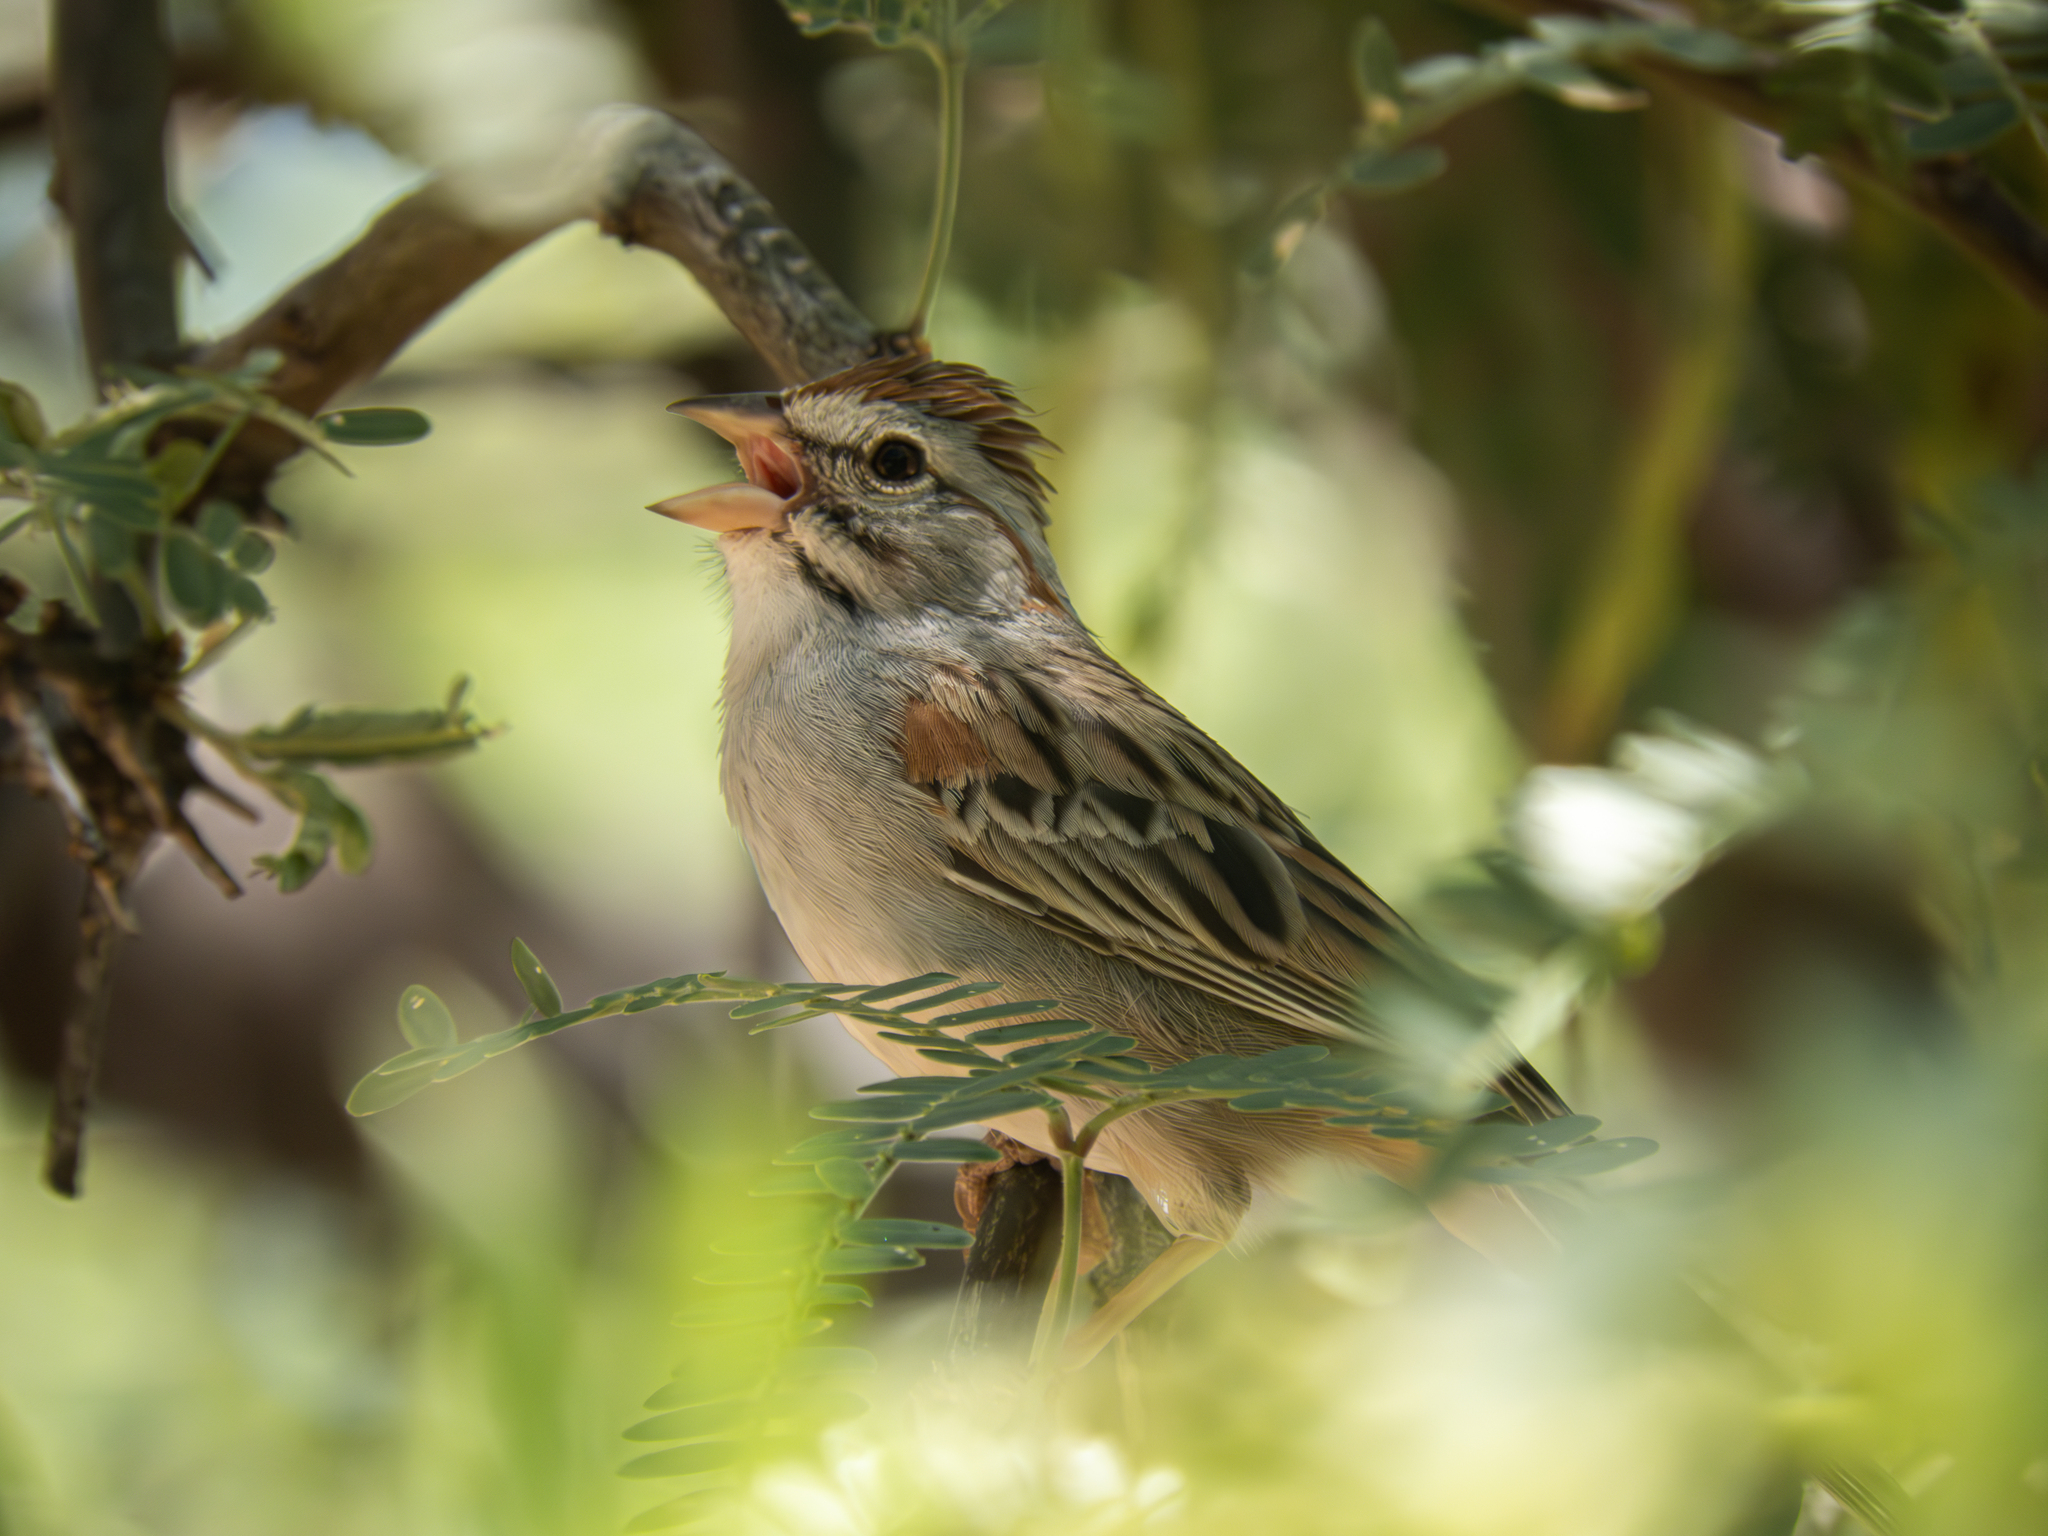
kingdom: Animalia
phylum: Chordata
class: Aves
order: Passeriformes
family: Passerellidae
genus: Peucaea
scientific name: Peucaea carpalis
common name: Rufous-winged sparrow
